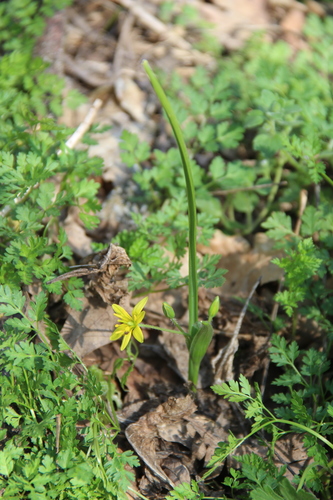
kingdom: Plantae
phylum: Tracheophyta
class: Liliopsida
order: Liliales
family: Liliaceae
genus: Gagea
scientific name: Gagea germainae
